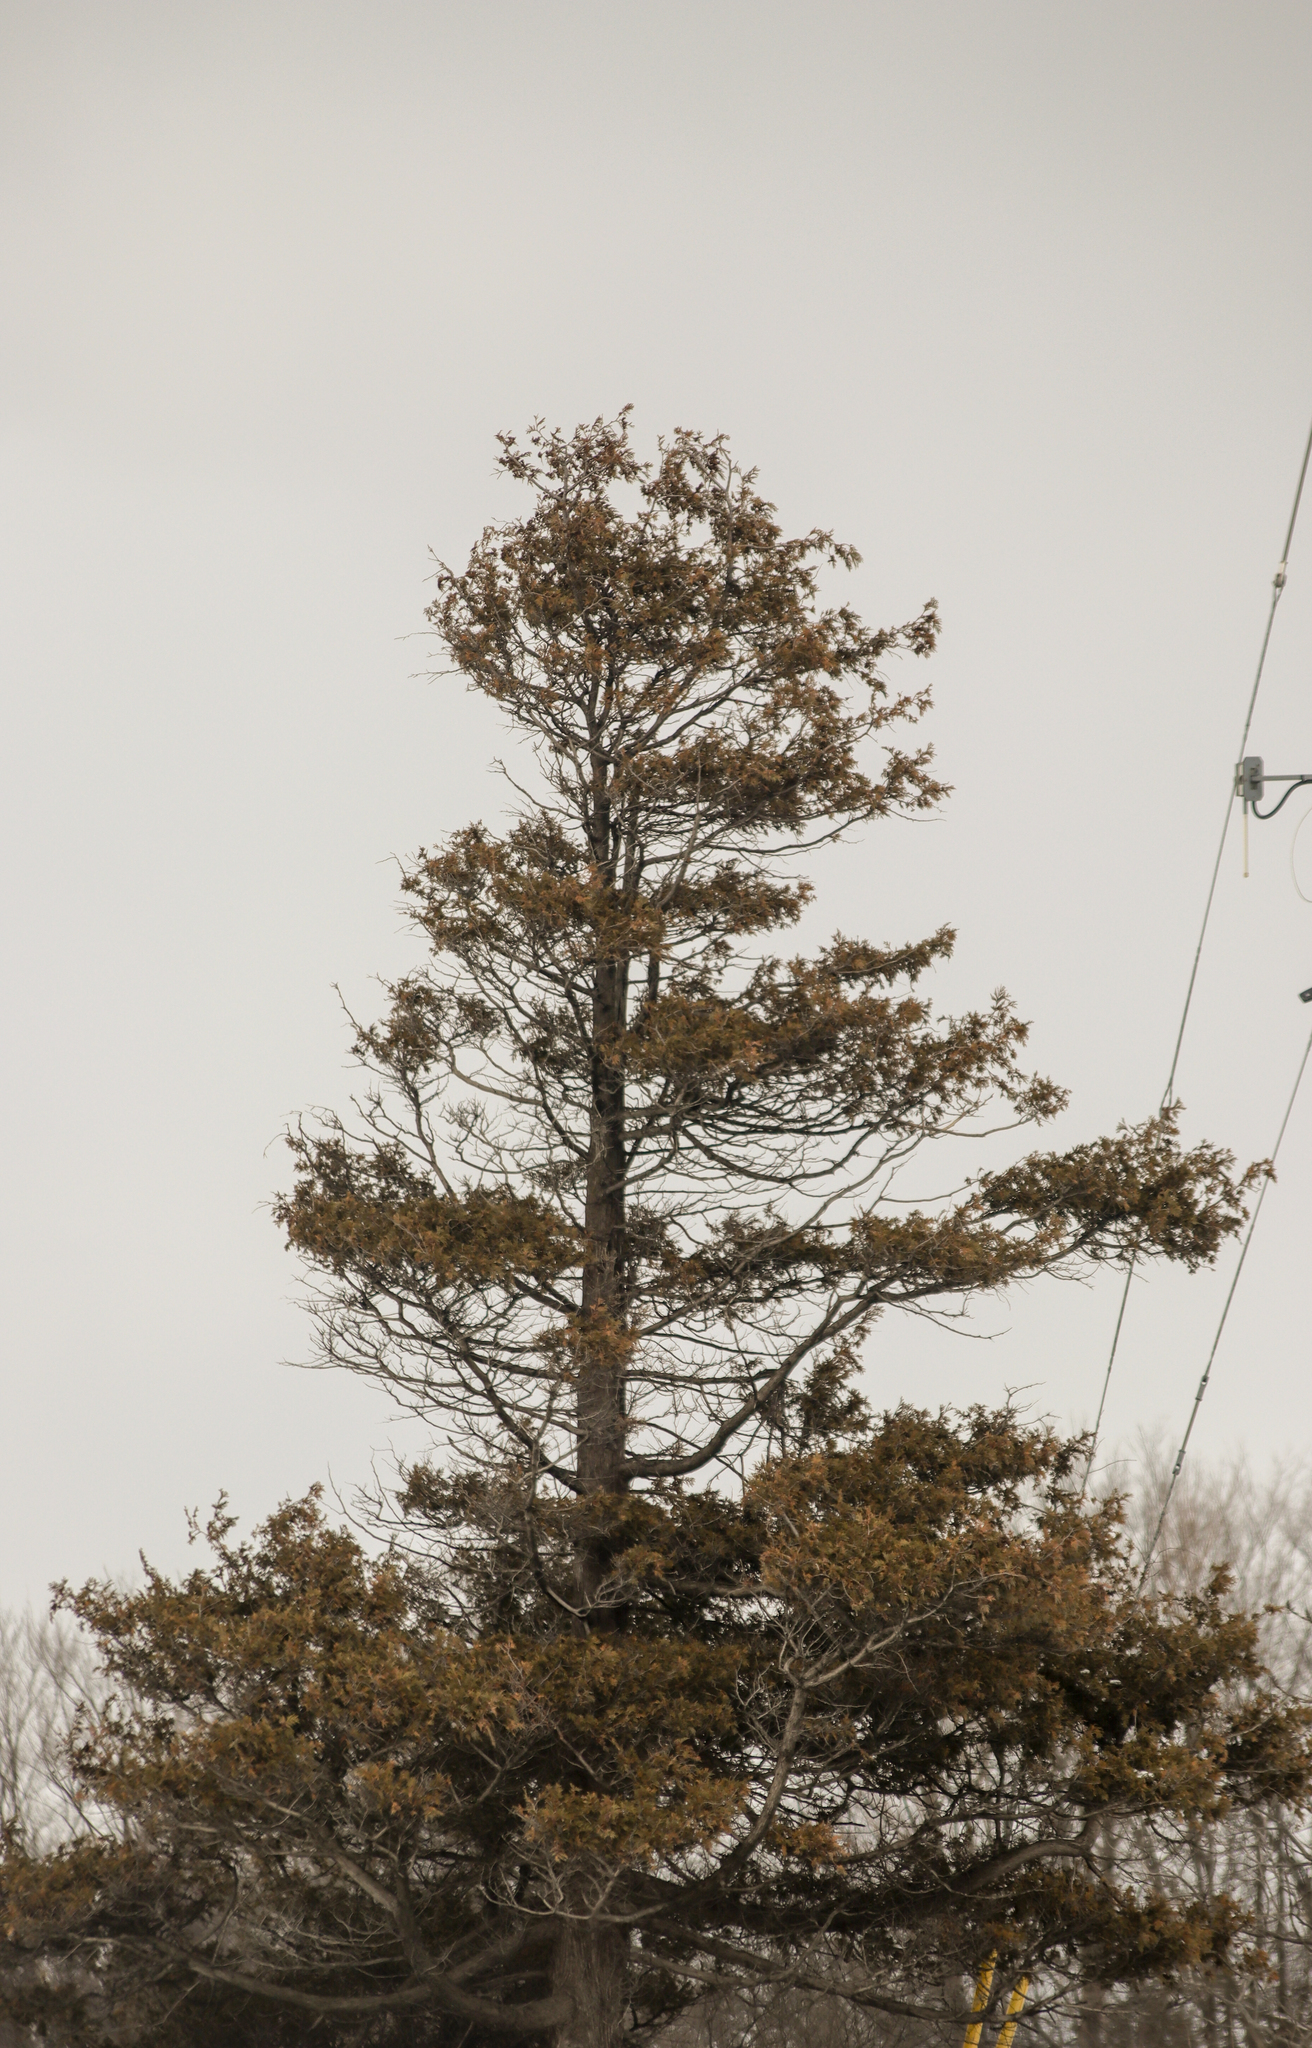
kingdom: Plantae
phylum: Tracheophyta
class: Pinopsida
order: Pinales
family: Cupressaceae
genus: Thuja
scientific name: Thuja occidentalis
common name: Northern white-cedar
